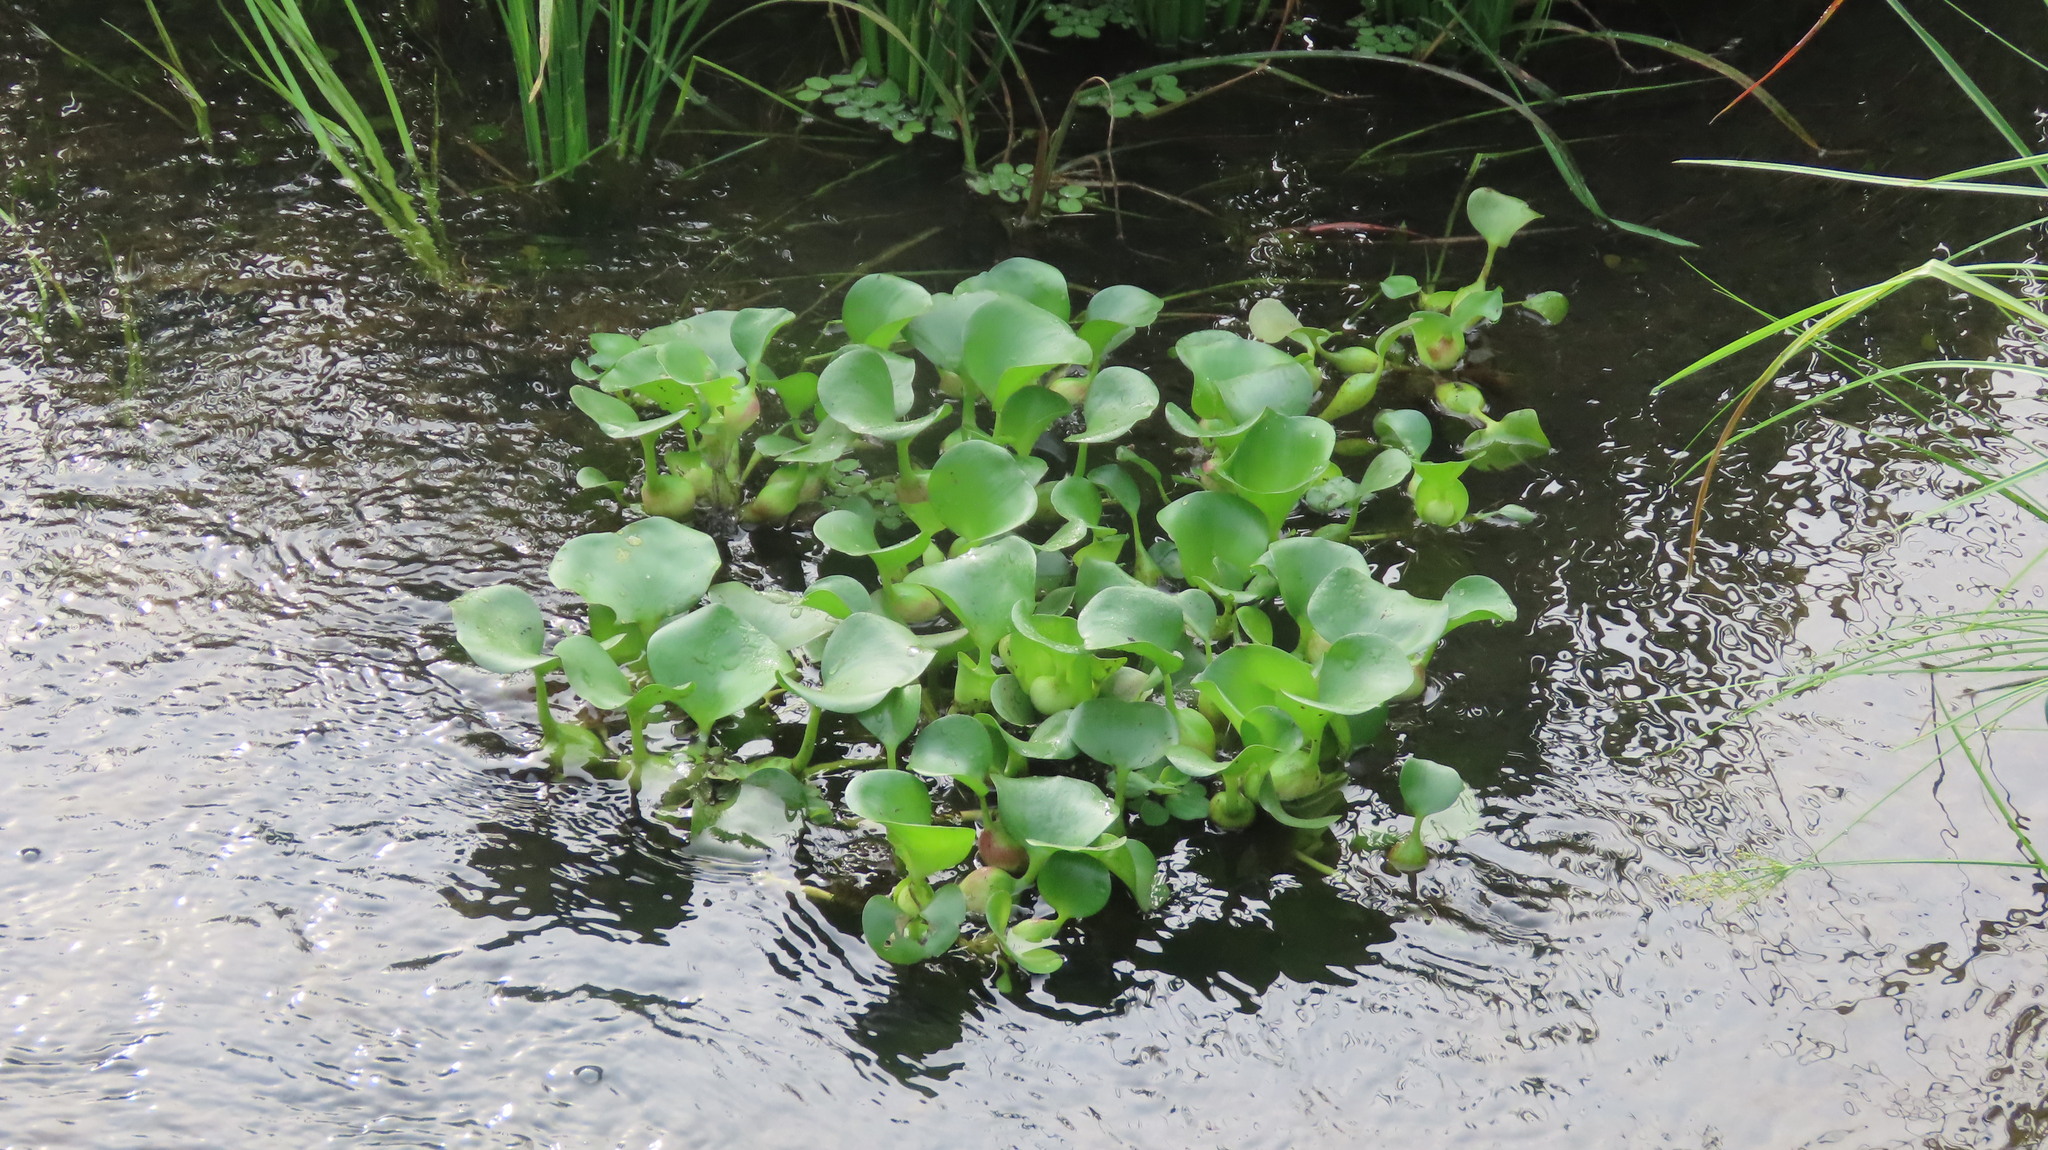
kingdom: Plantae
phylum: Tracheophyta
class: Liliopsida
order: Commelinales
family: Pontederiaceae
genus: Pontederia
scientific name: Pontederia crassipes
